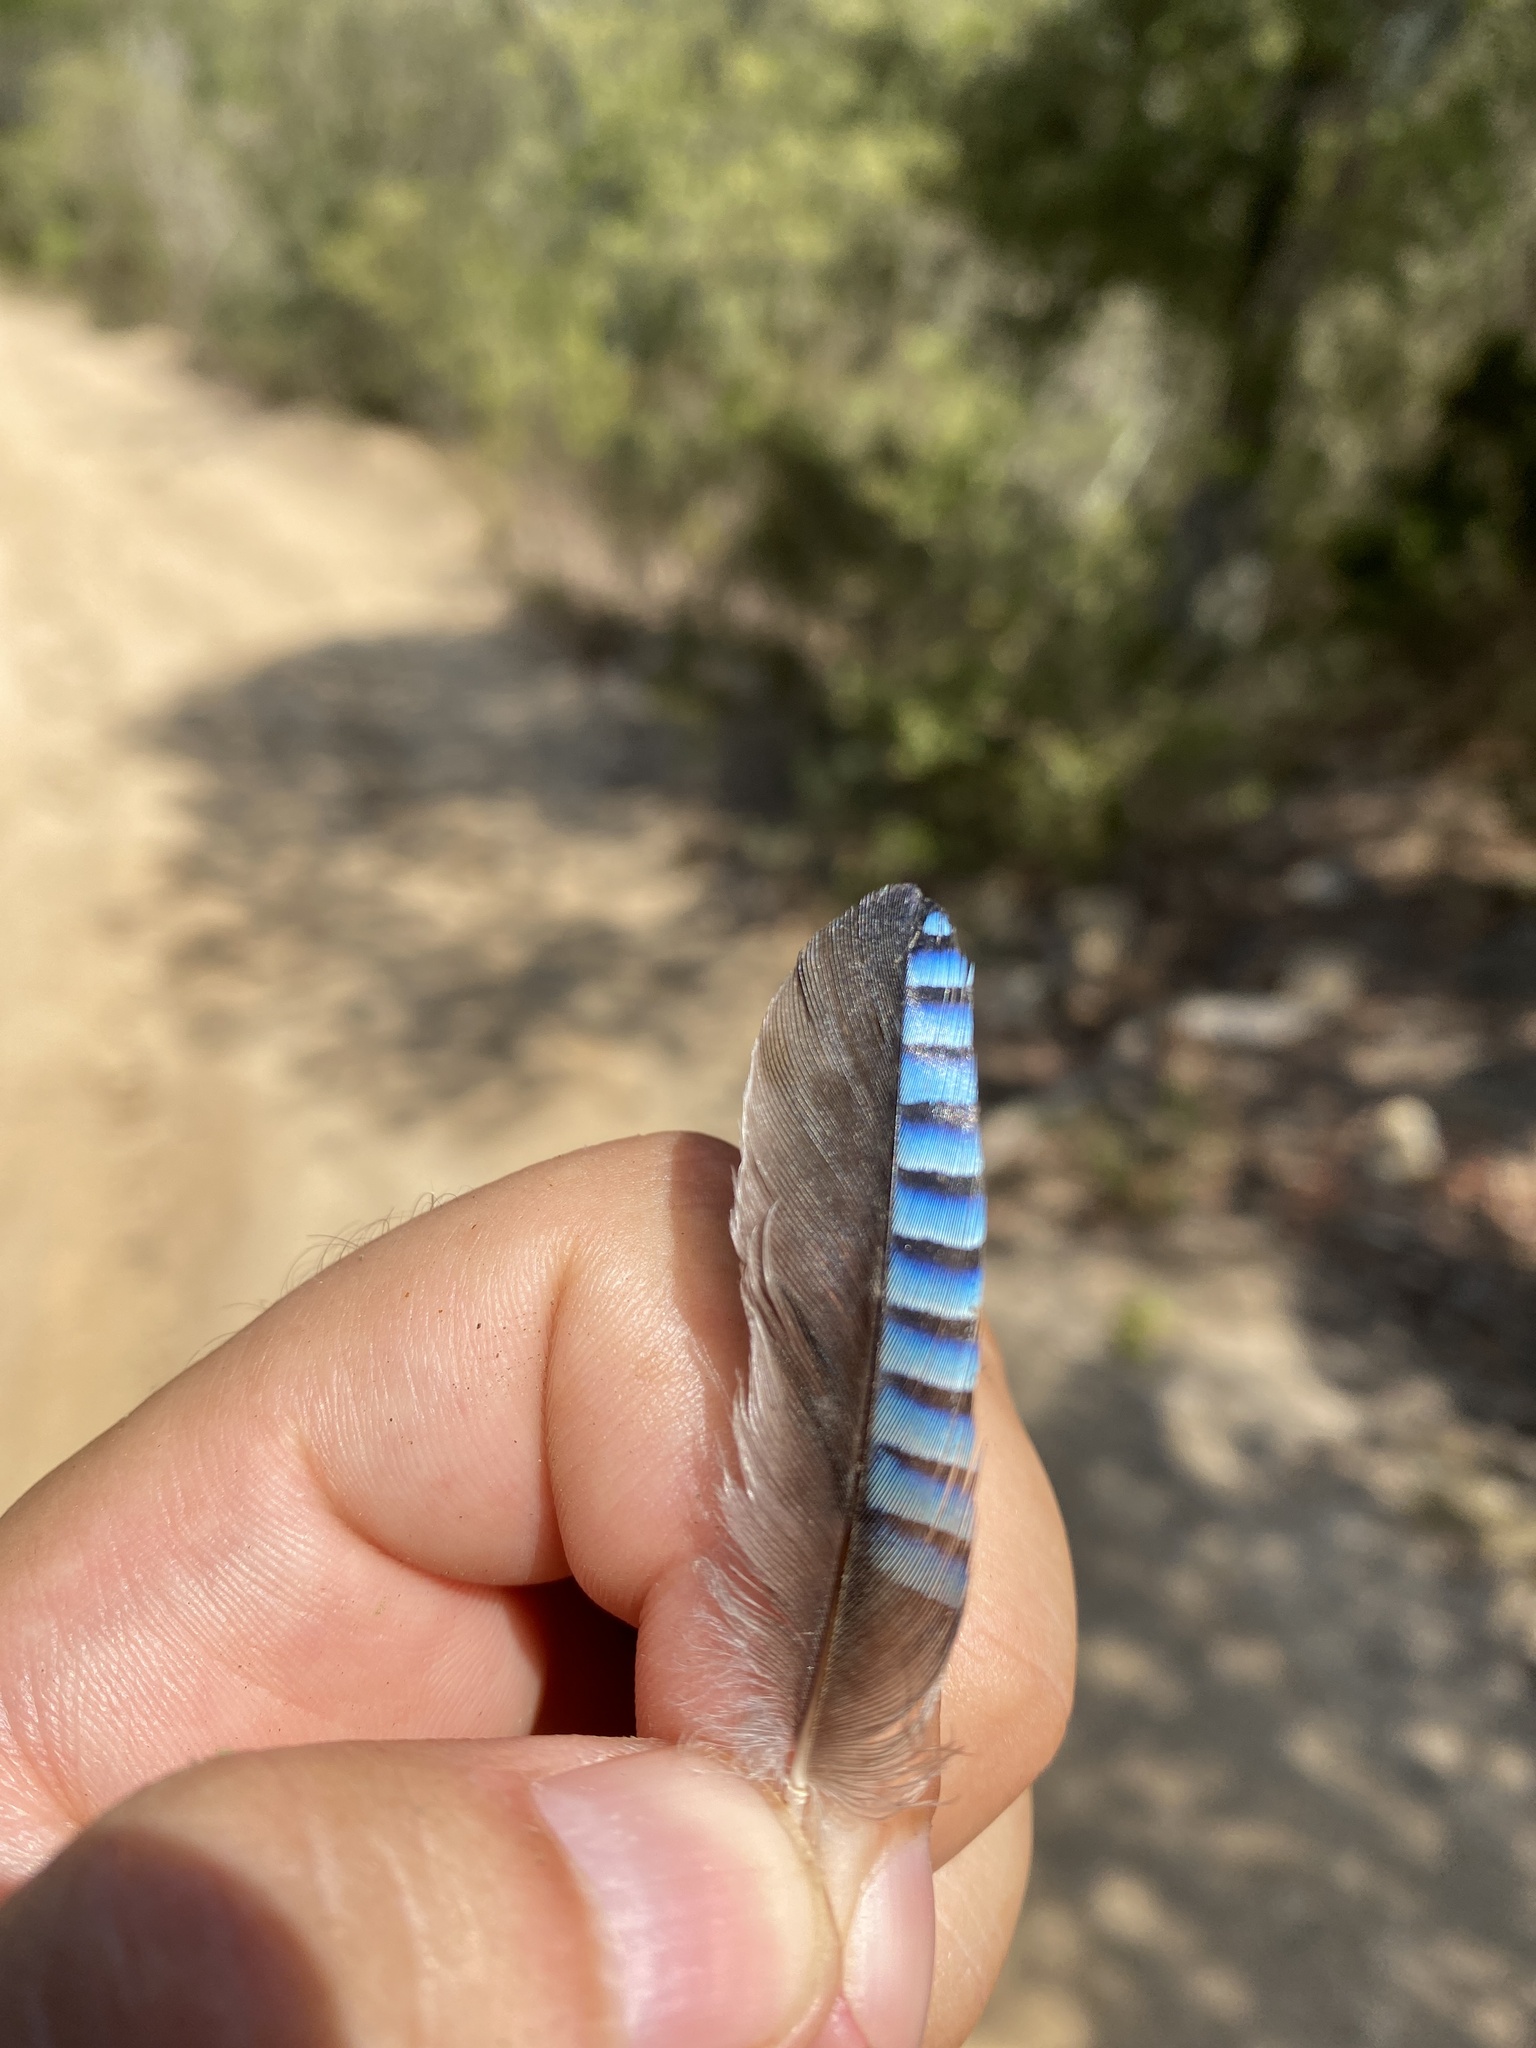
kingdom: Animalia
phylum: Chordata
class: Aves
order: Passeriformes
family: Corvidae
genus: Garrulus
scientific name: Garrulus glandarius
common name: Eurasian jay
